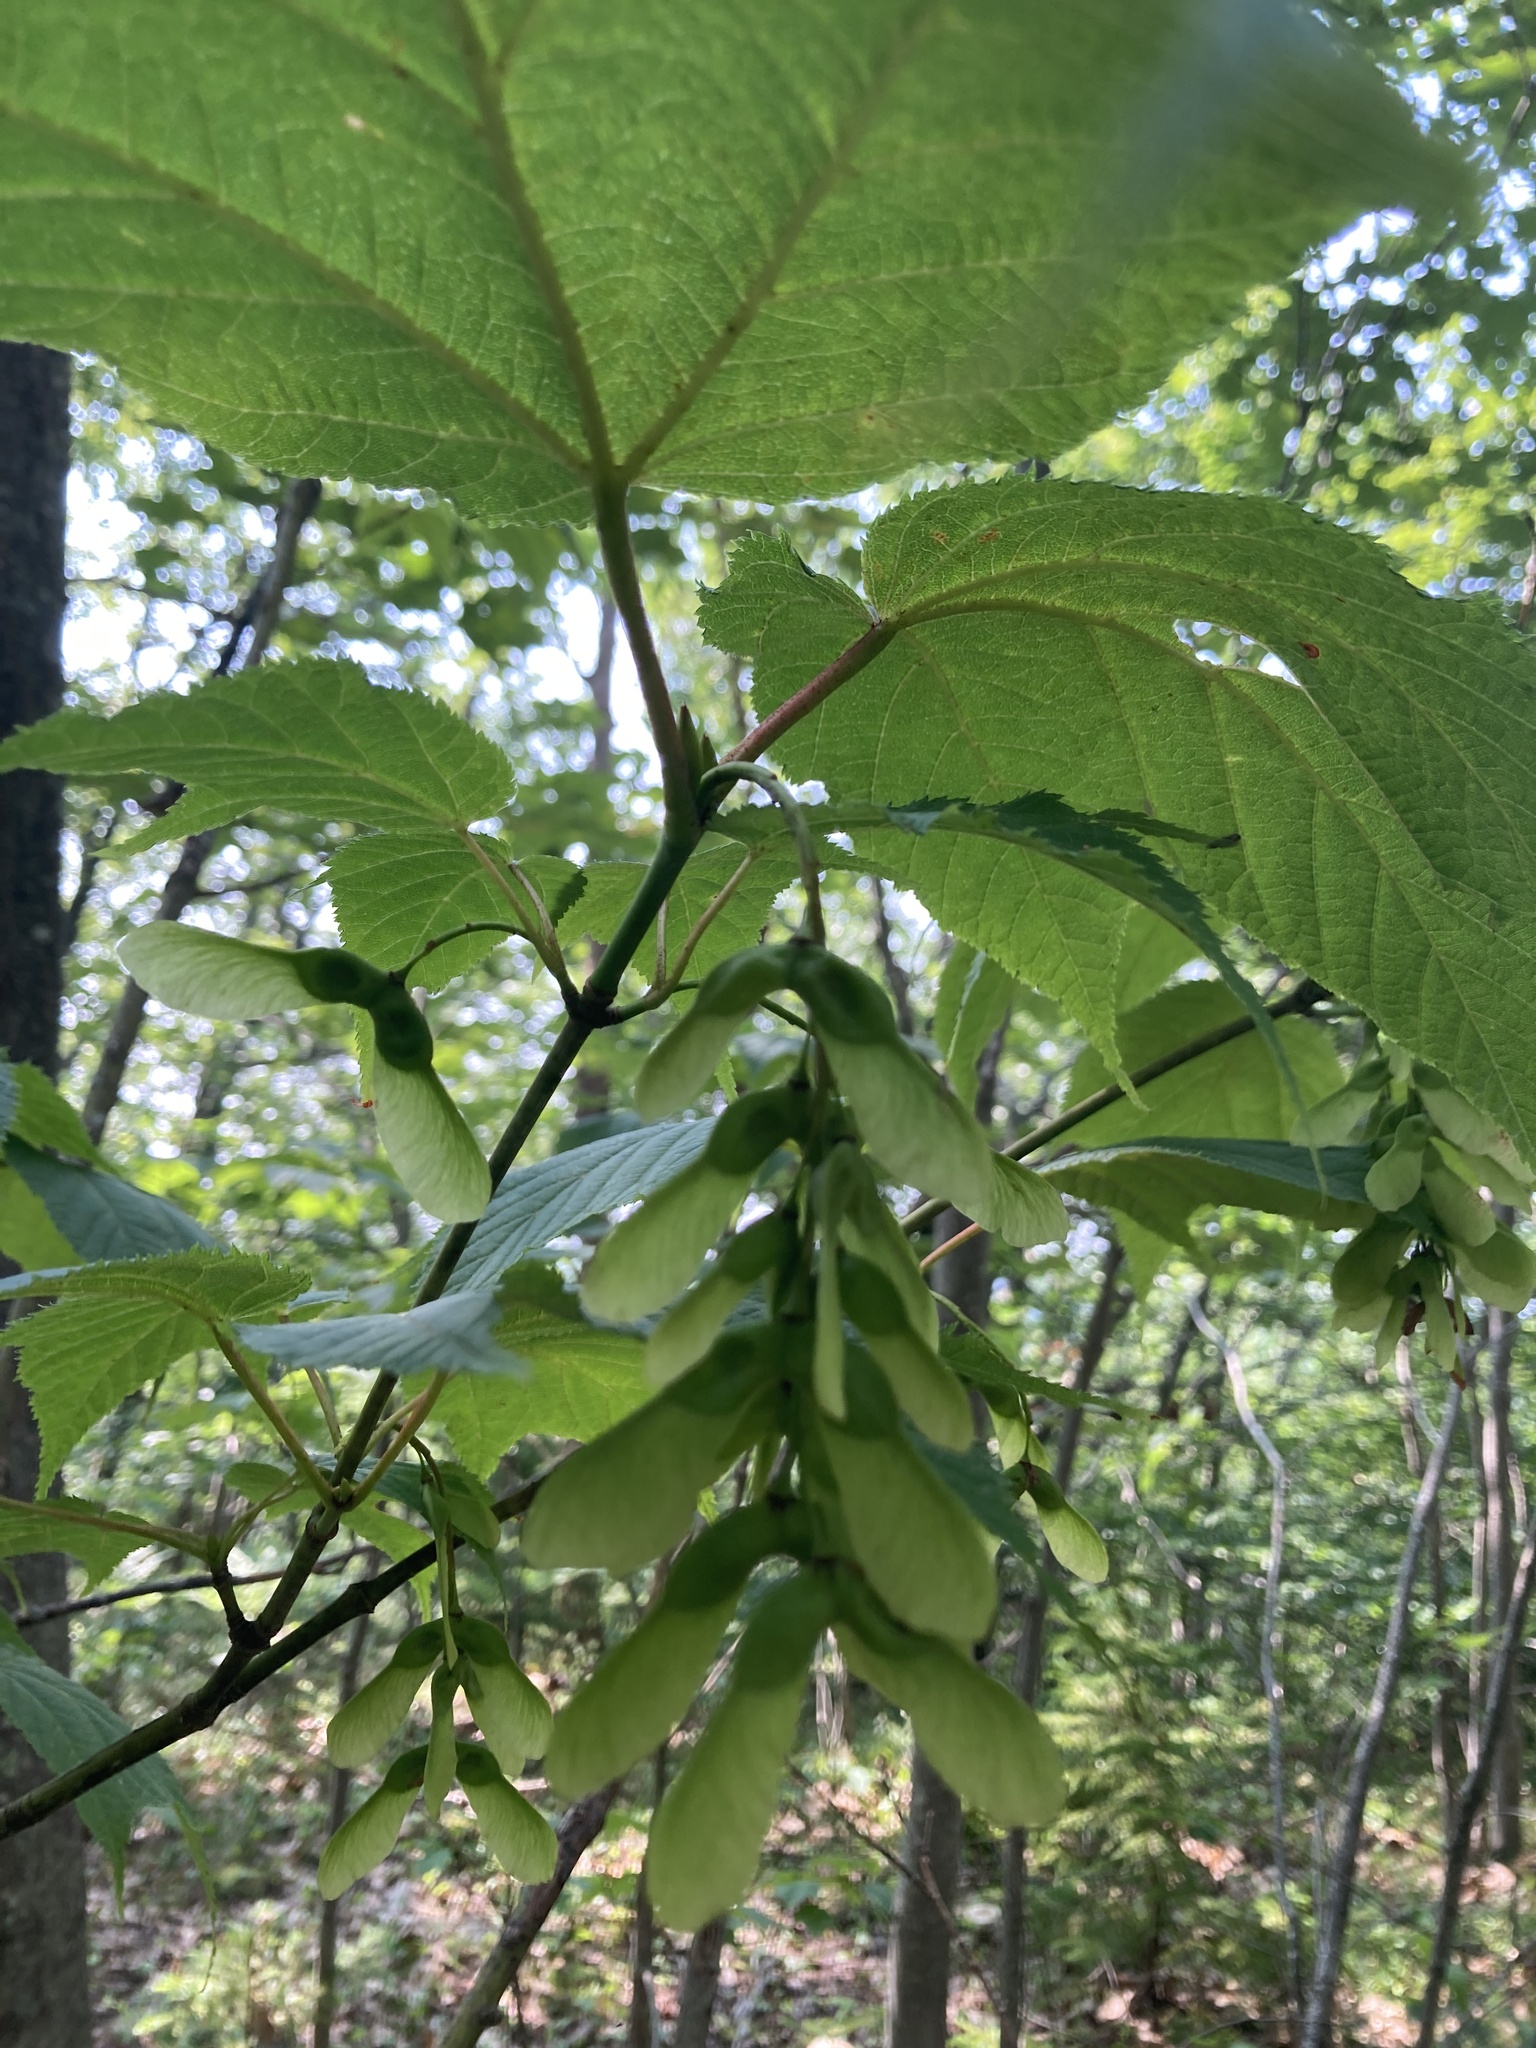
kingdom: Plantae
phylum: Tracheophyta
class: Magnoliopsida
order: Sapindales
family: Sapindaceae
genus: Acer
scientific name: Acer pensylvanicum
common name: Moosewood
